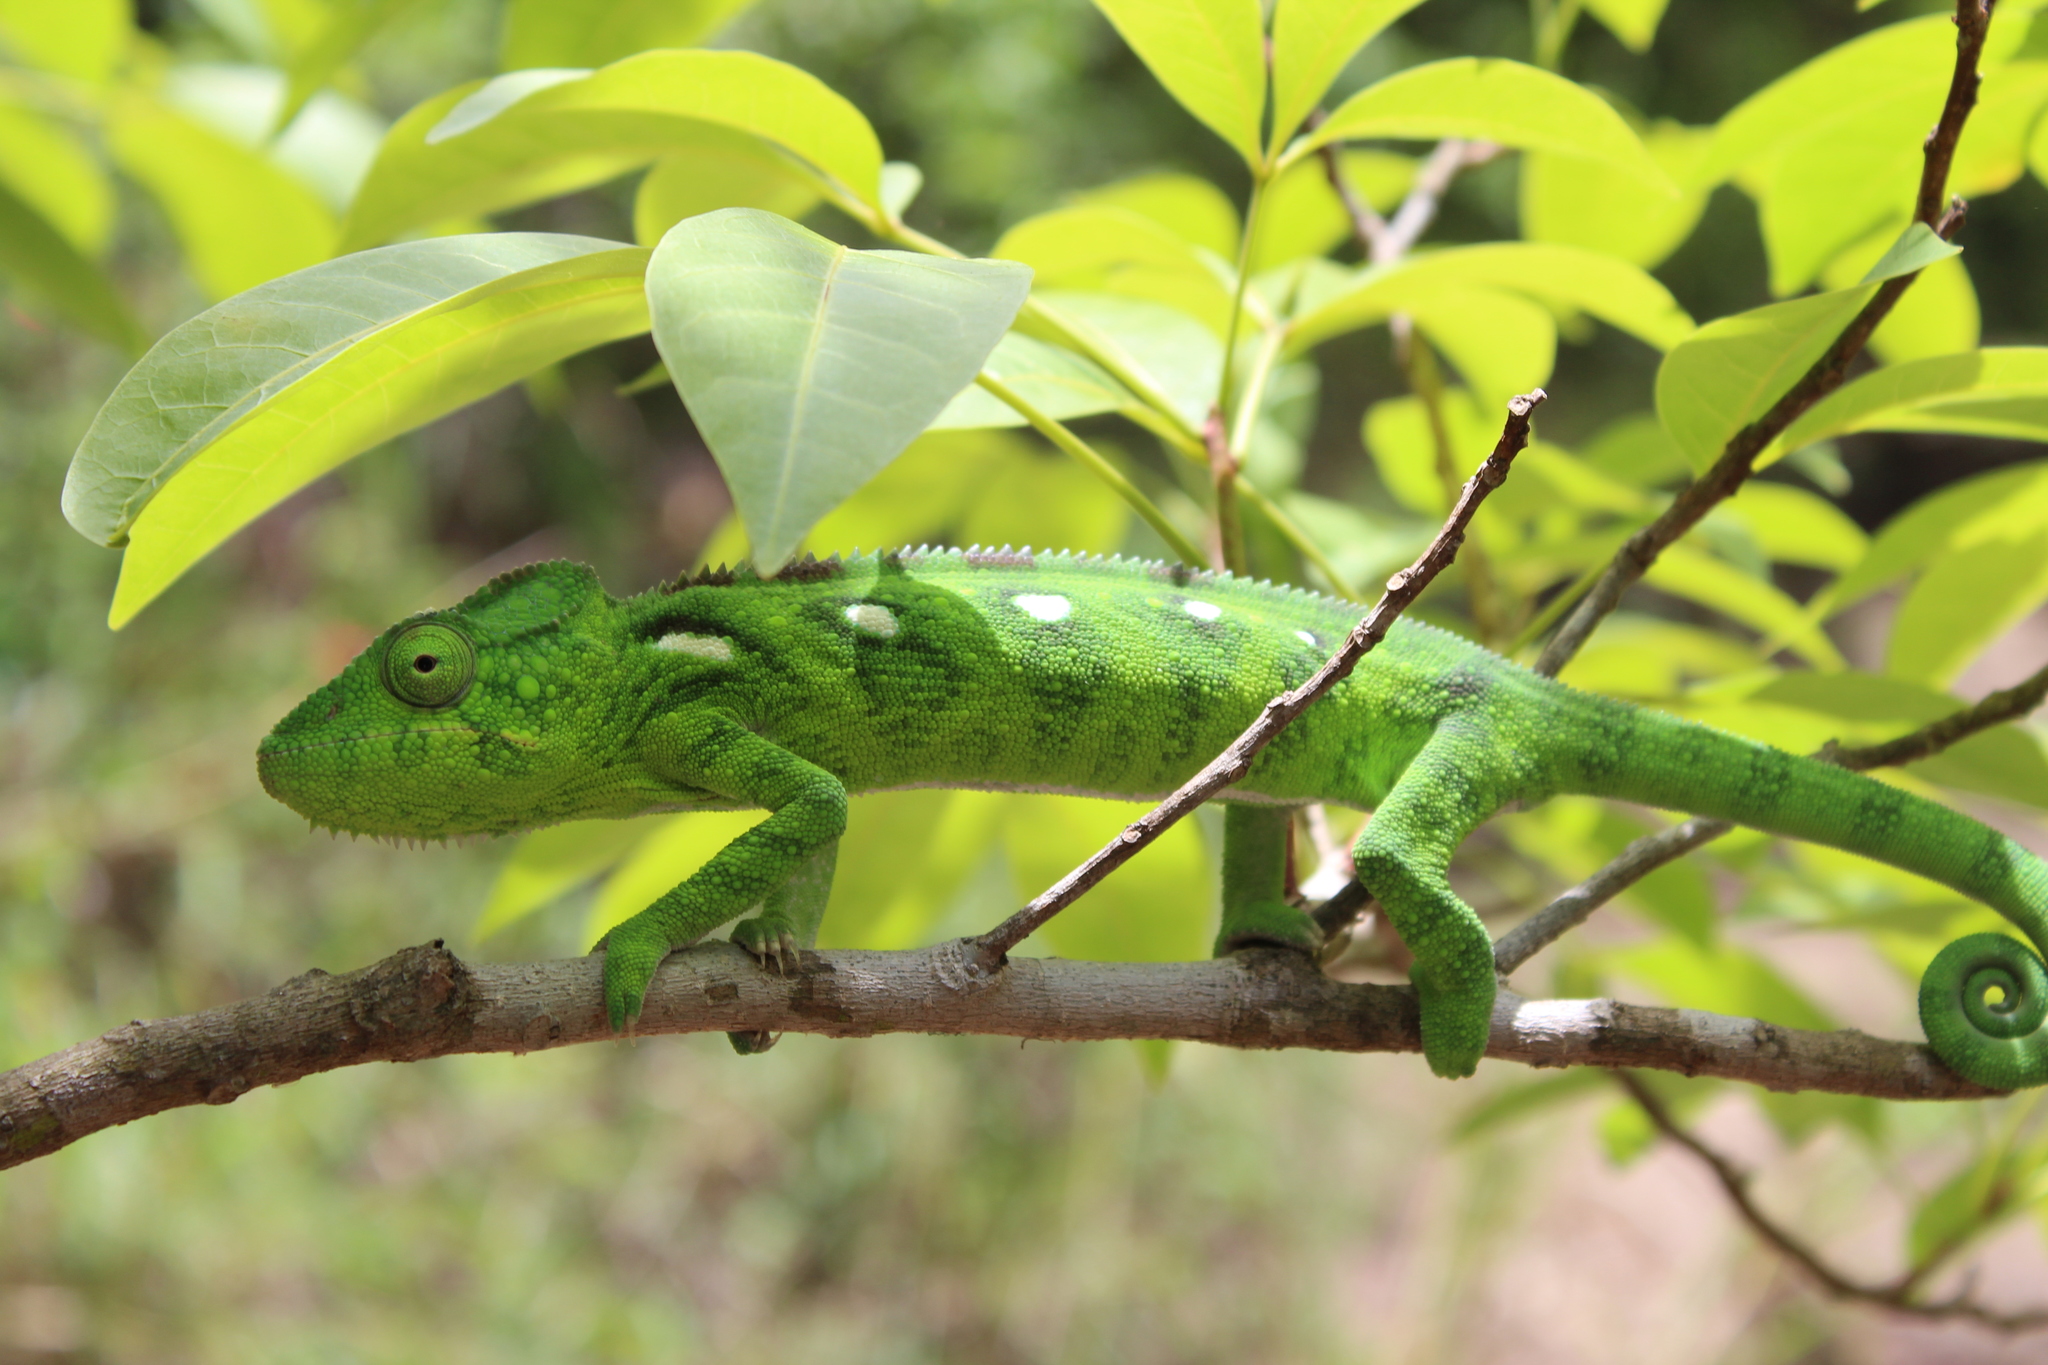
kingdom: Animalia
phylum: Chordata
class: Squamata
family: Chamaeleonidae
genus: Furcifer
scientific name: Furcifer oustaleti
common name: Oustalet's chameleon
